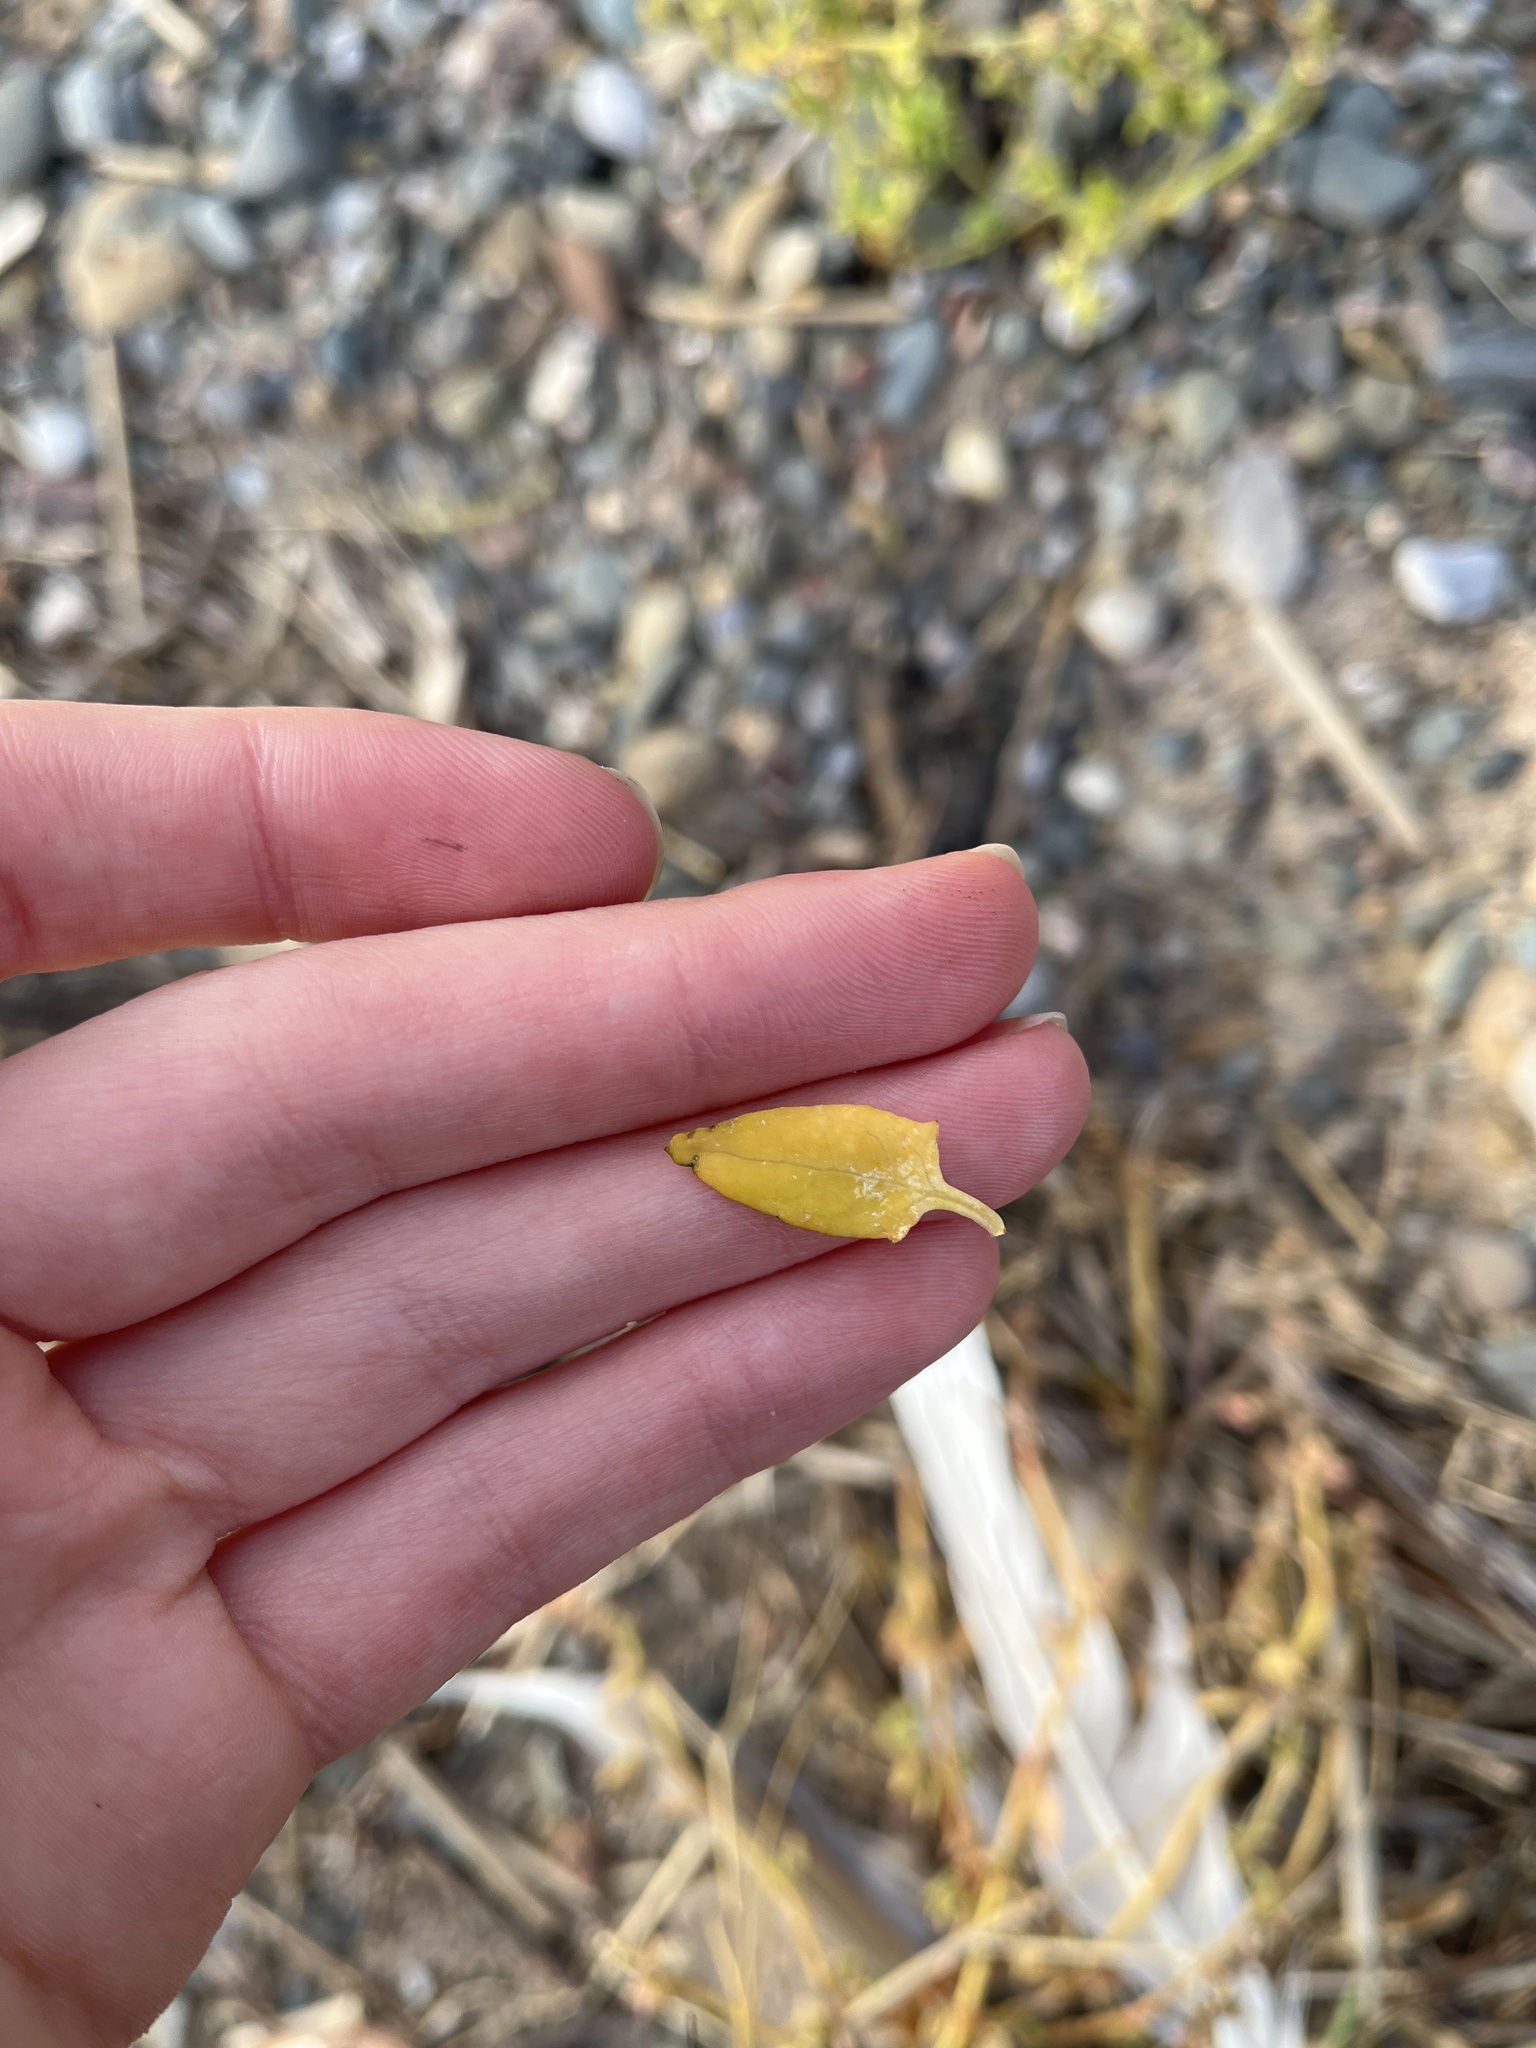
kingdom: Plantae
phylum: Tracheophyta
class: Magnoliopsida
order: Caryophyllales
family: Amaranthaceae
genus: Atriplex
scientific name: Atriplex prostrata
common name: Spear-leaved orache
